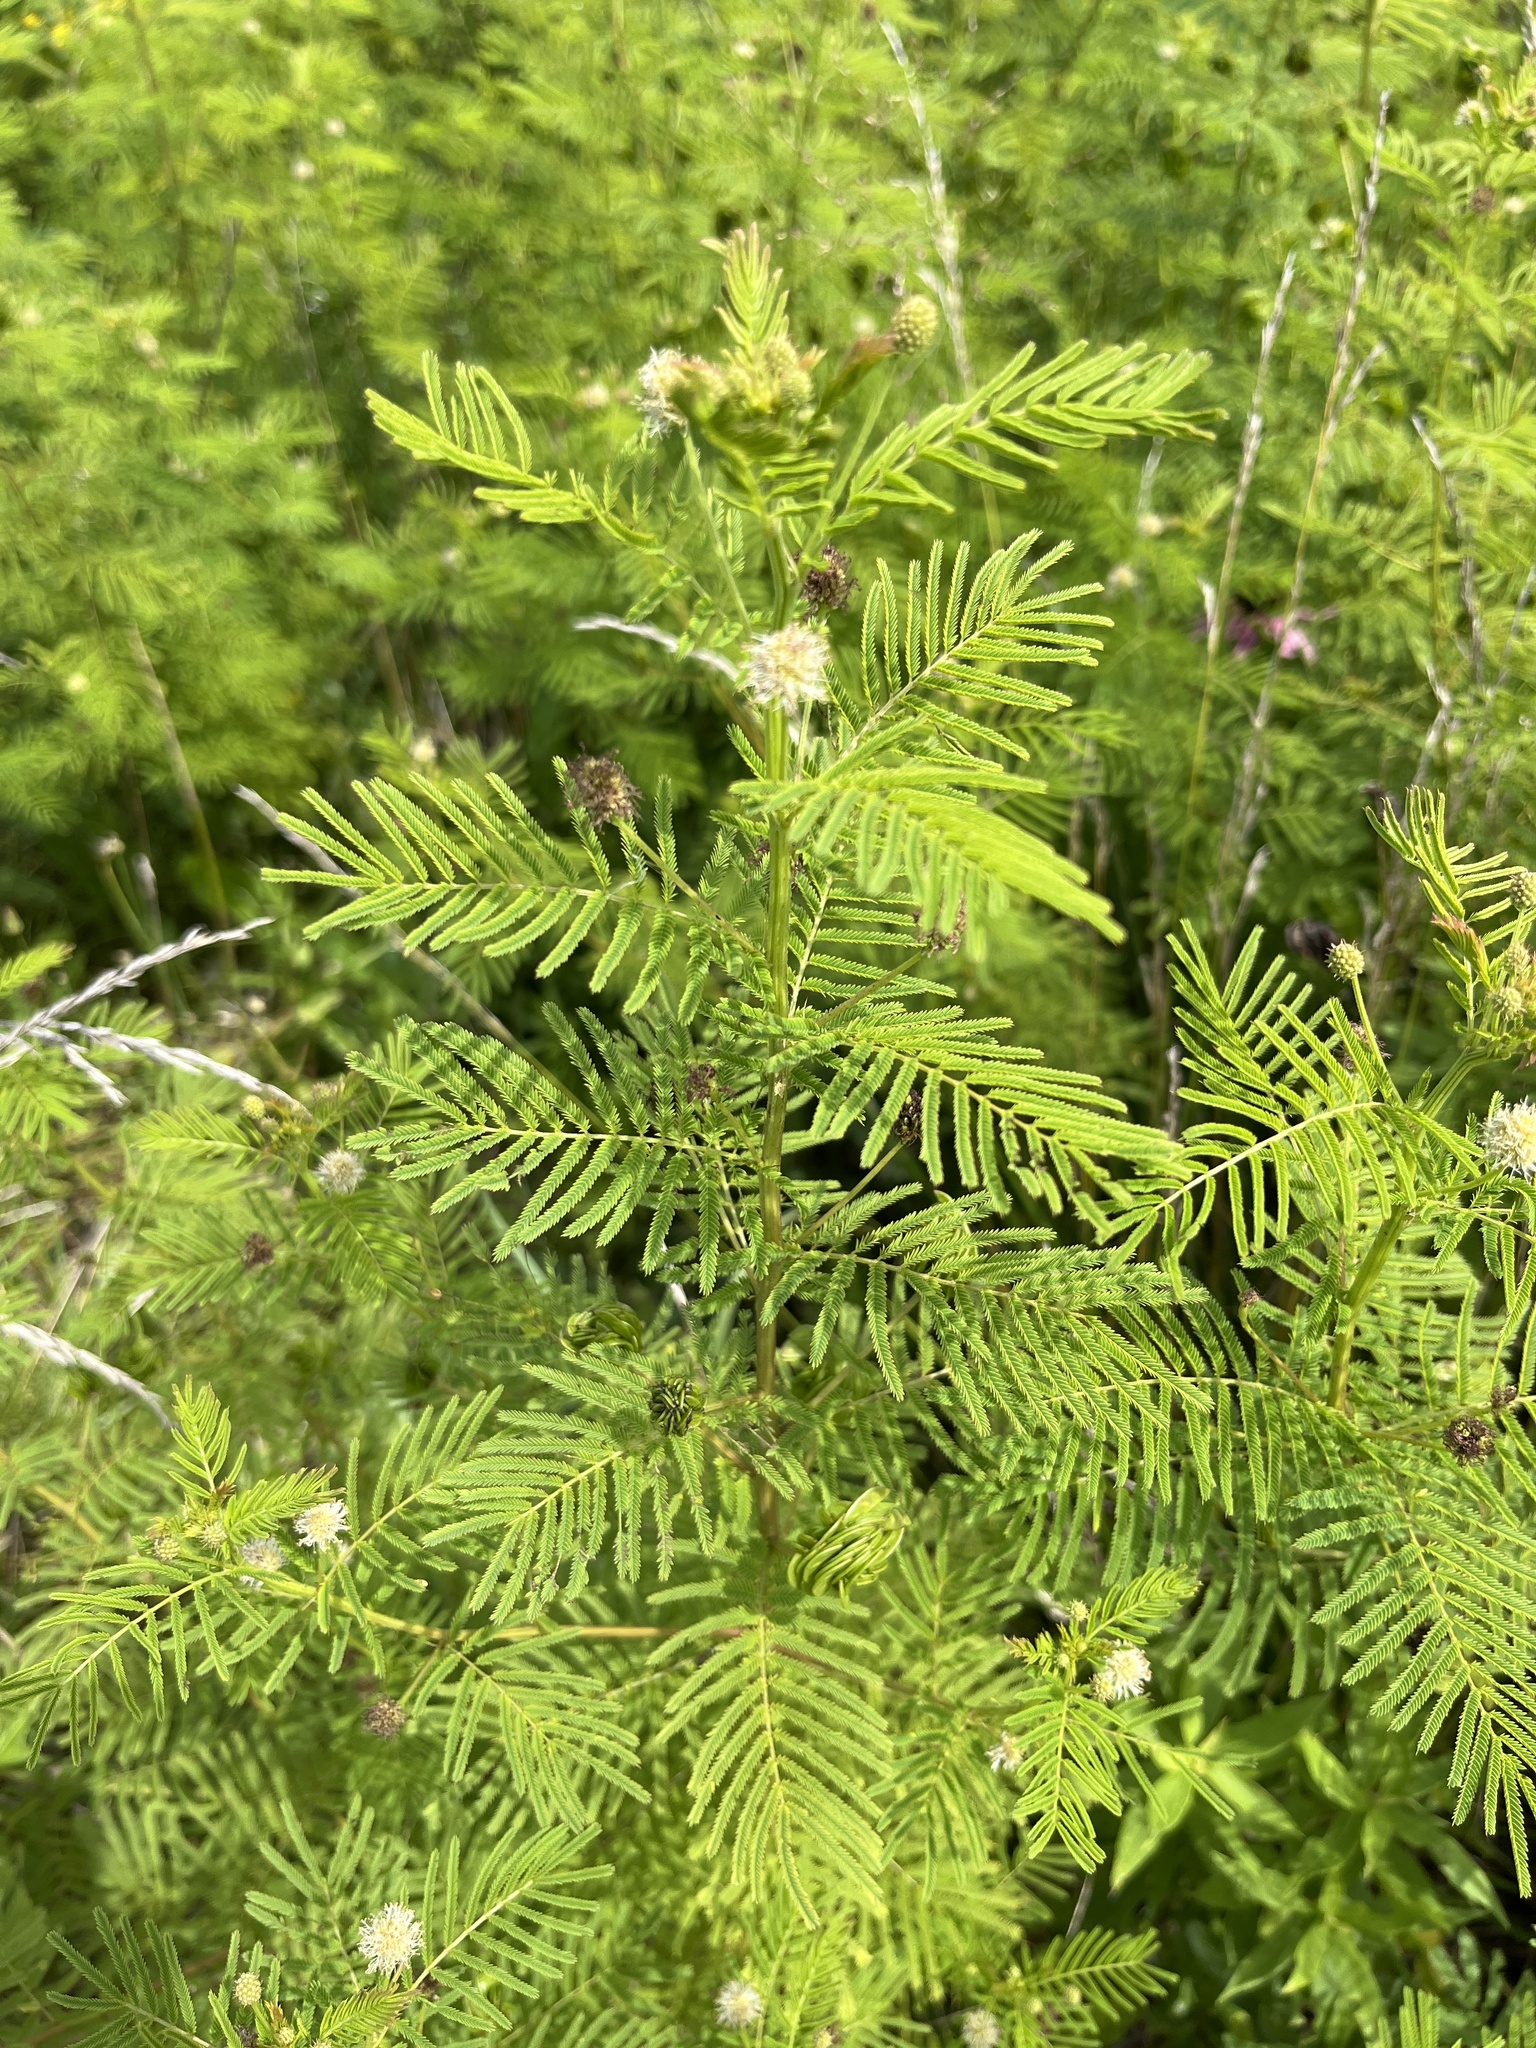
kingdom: Plantae
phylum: Tracheophyta
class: Magnoliopsida
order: Fabales
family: Fabaceae
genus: Desmanthus
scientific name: Desmanthus illinoensis
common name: Illinois bundle-flower
